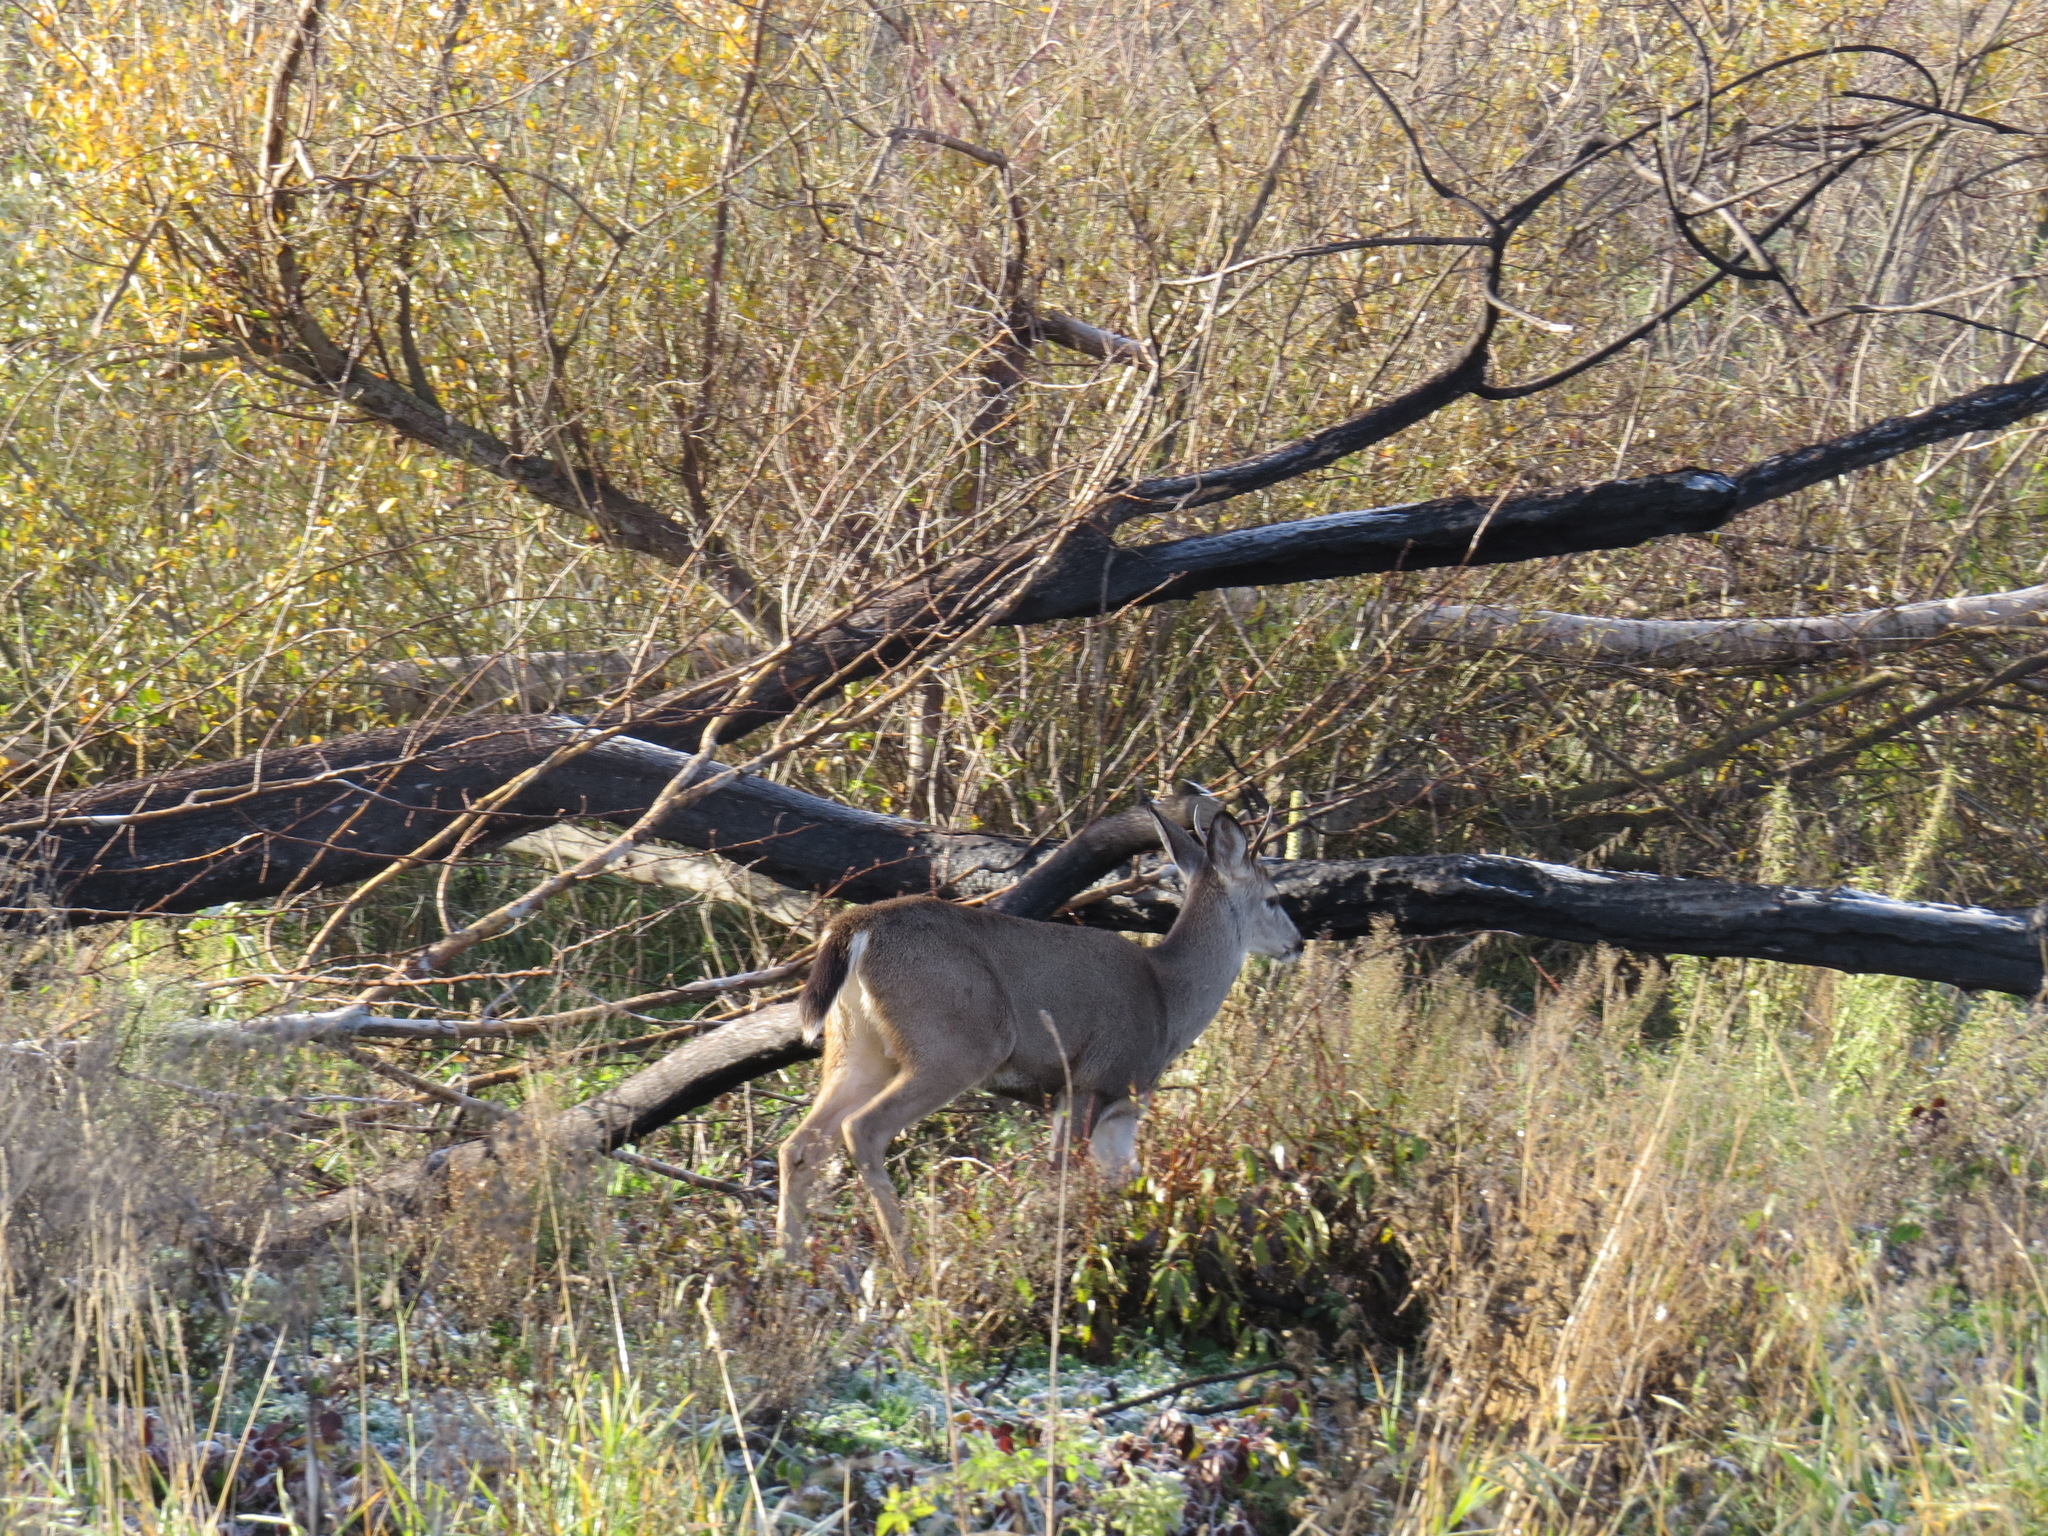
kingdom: Animalia
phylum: Chordata
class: Mammalia
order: Artiodactyla
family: Cervidae
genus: Odocoileus
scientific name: Odocoileus hemionus
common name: Mule deer
